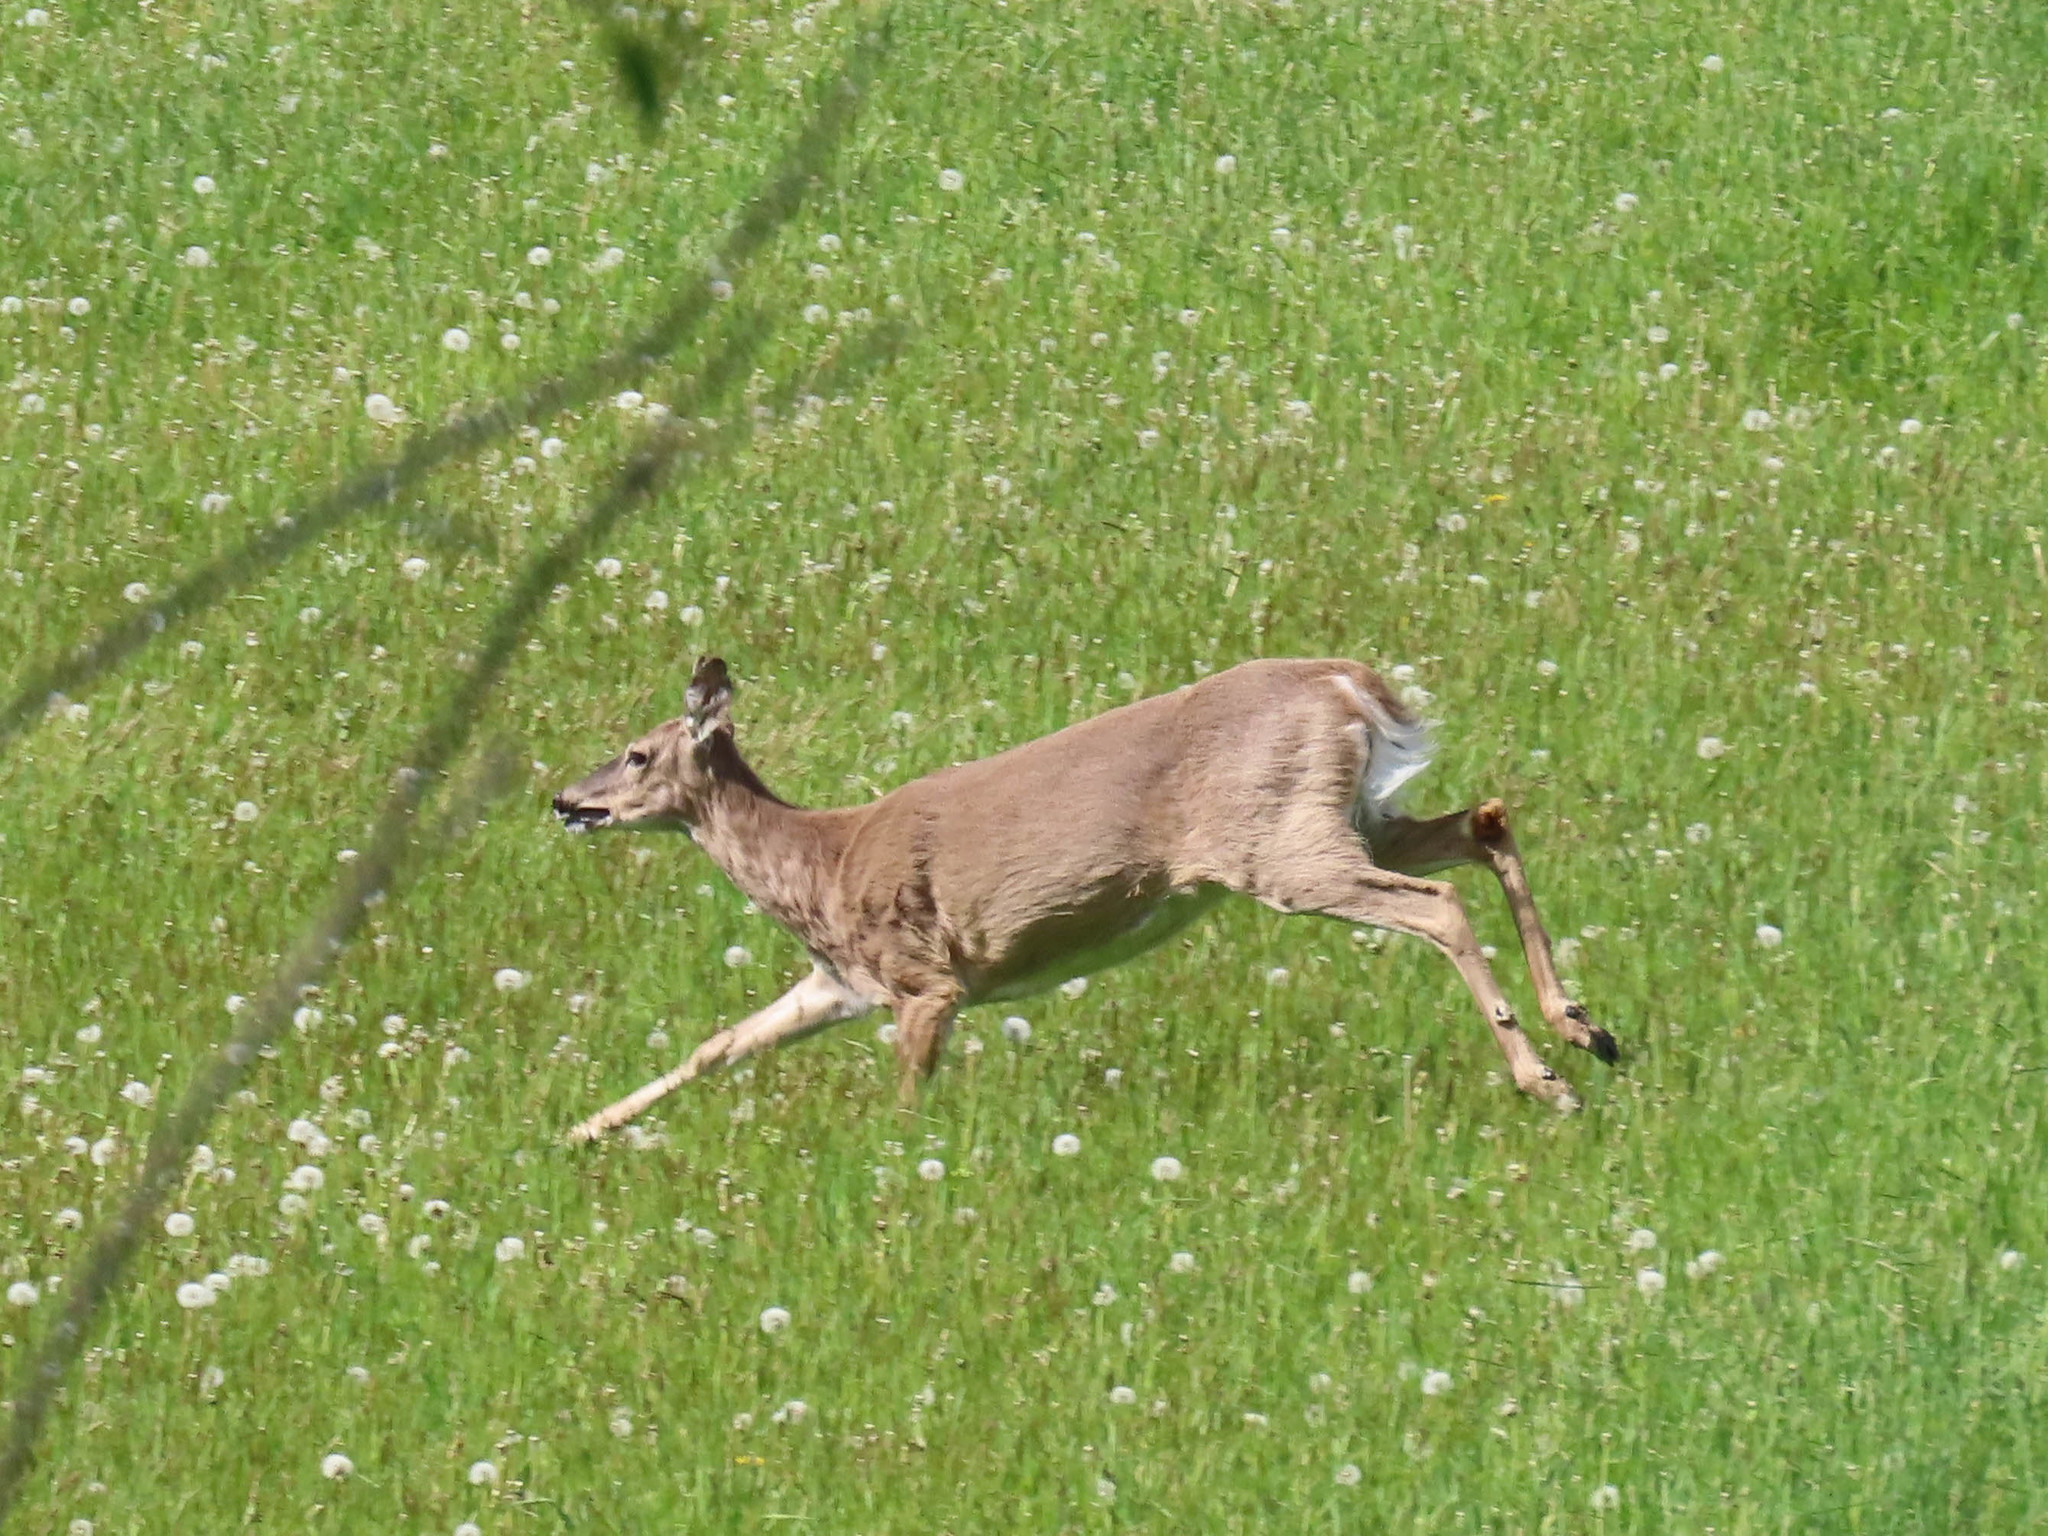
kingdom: Animalia
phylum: Chordata
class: Mammalia
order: Artiodactyla
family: Cervidae
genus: Odocoileus
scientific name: Odocoileus virginianus
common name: White-tailed deer
